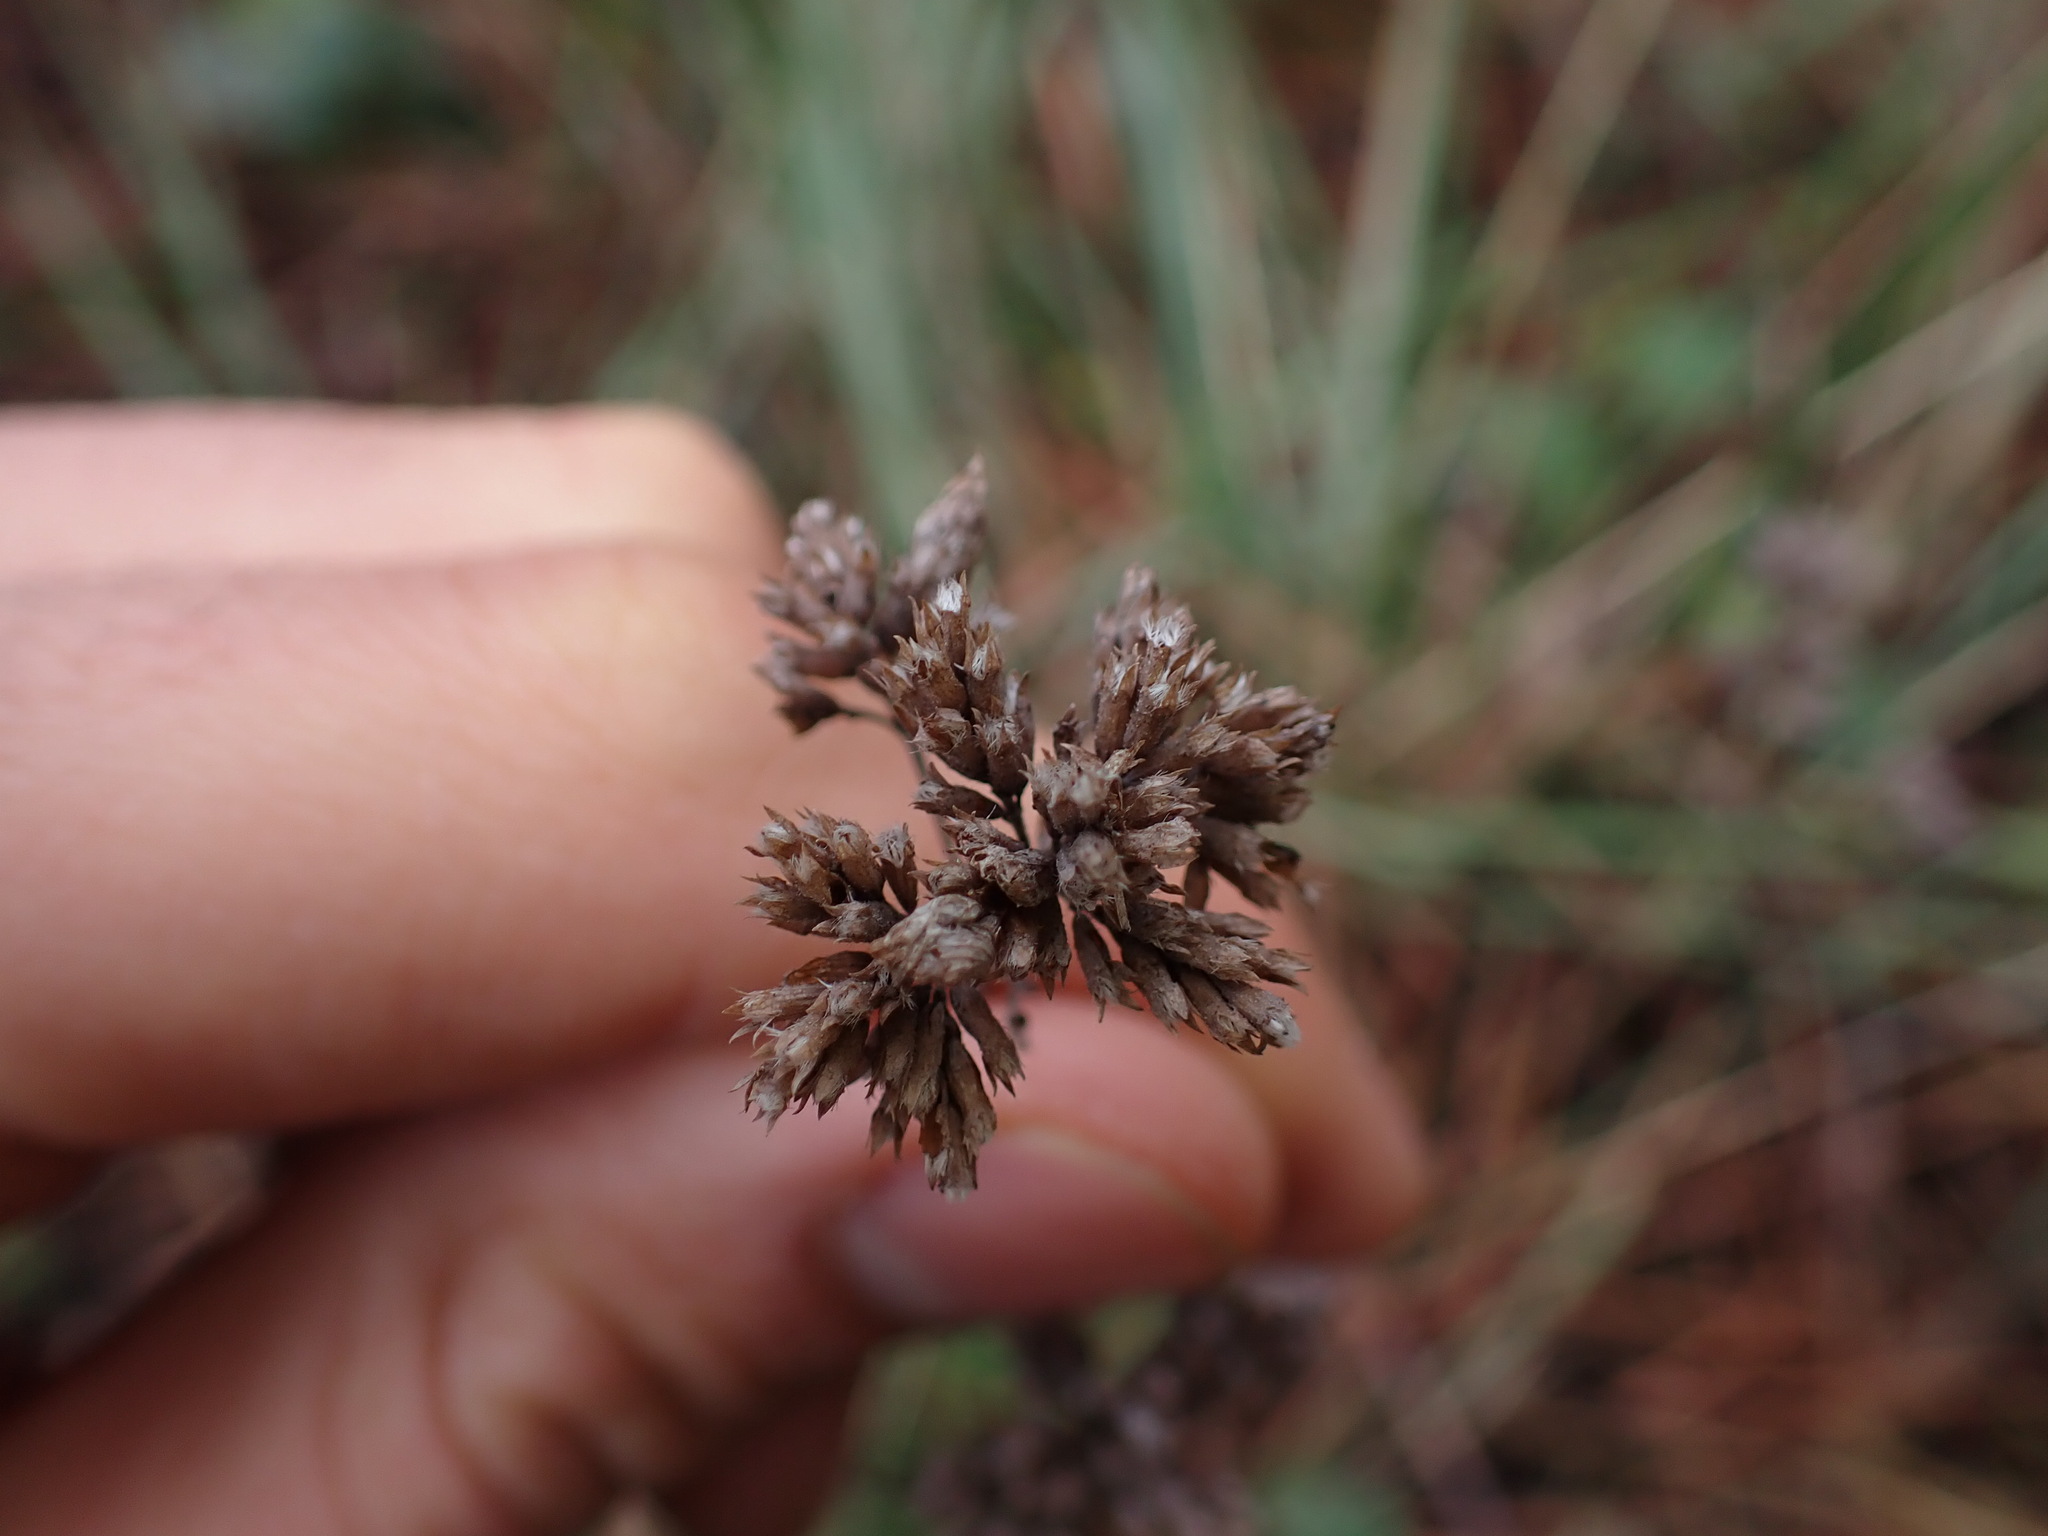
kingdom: Plantae
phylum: Tracheophyta
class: Magnoliopsida
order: Lamiales
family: Lamiaceae
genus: Origanum
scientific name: Origanum vulgare
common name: Wild marjoram
